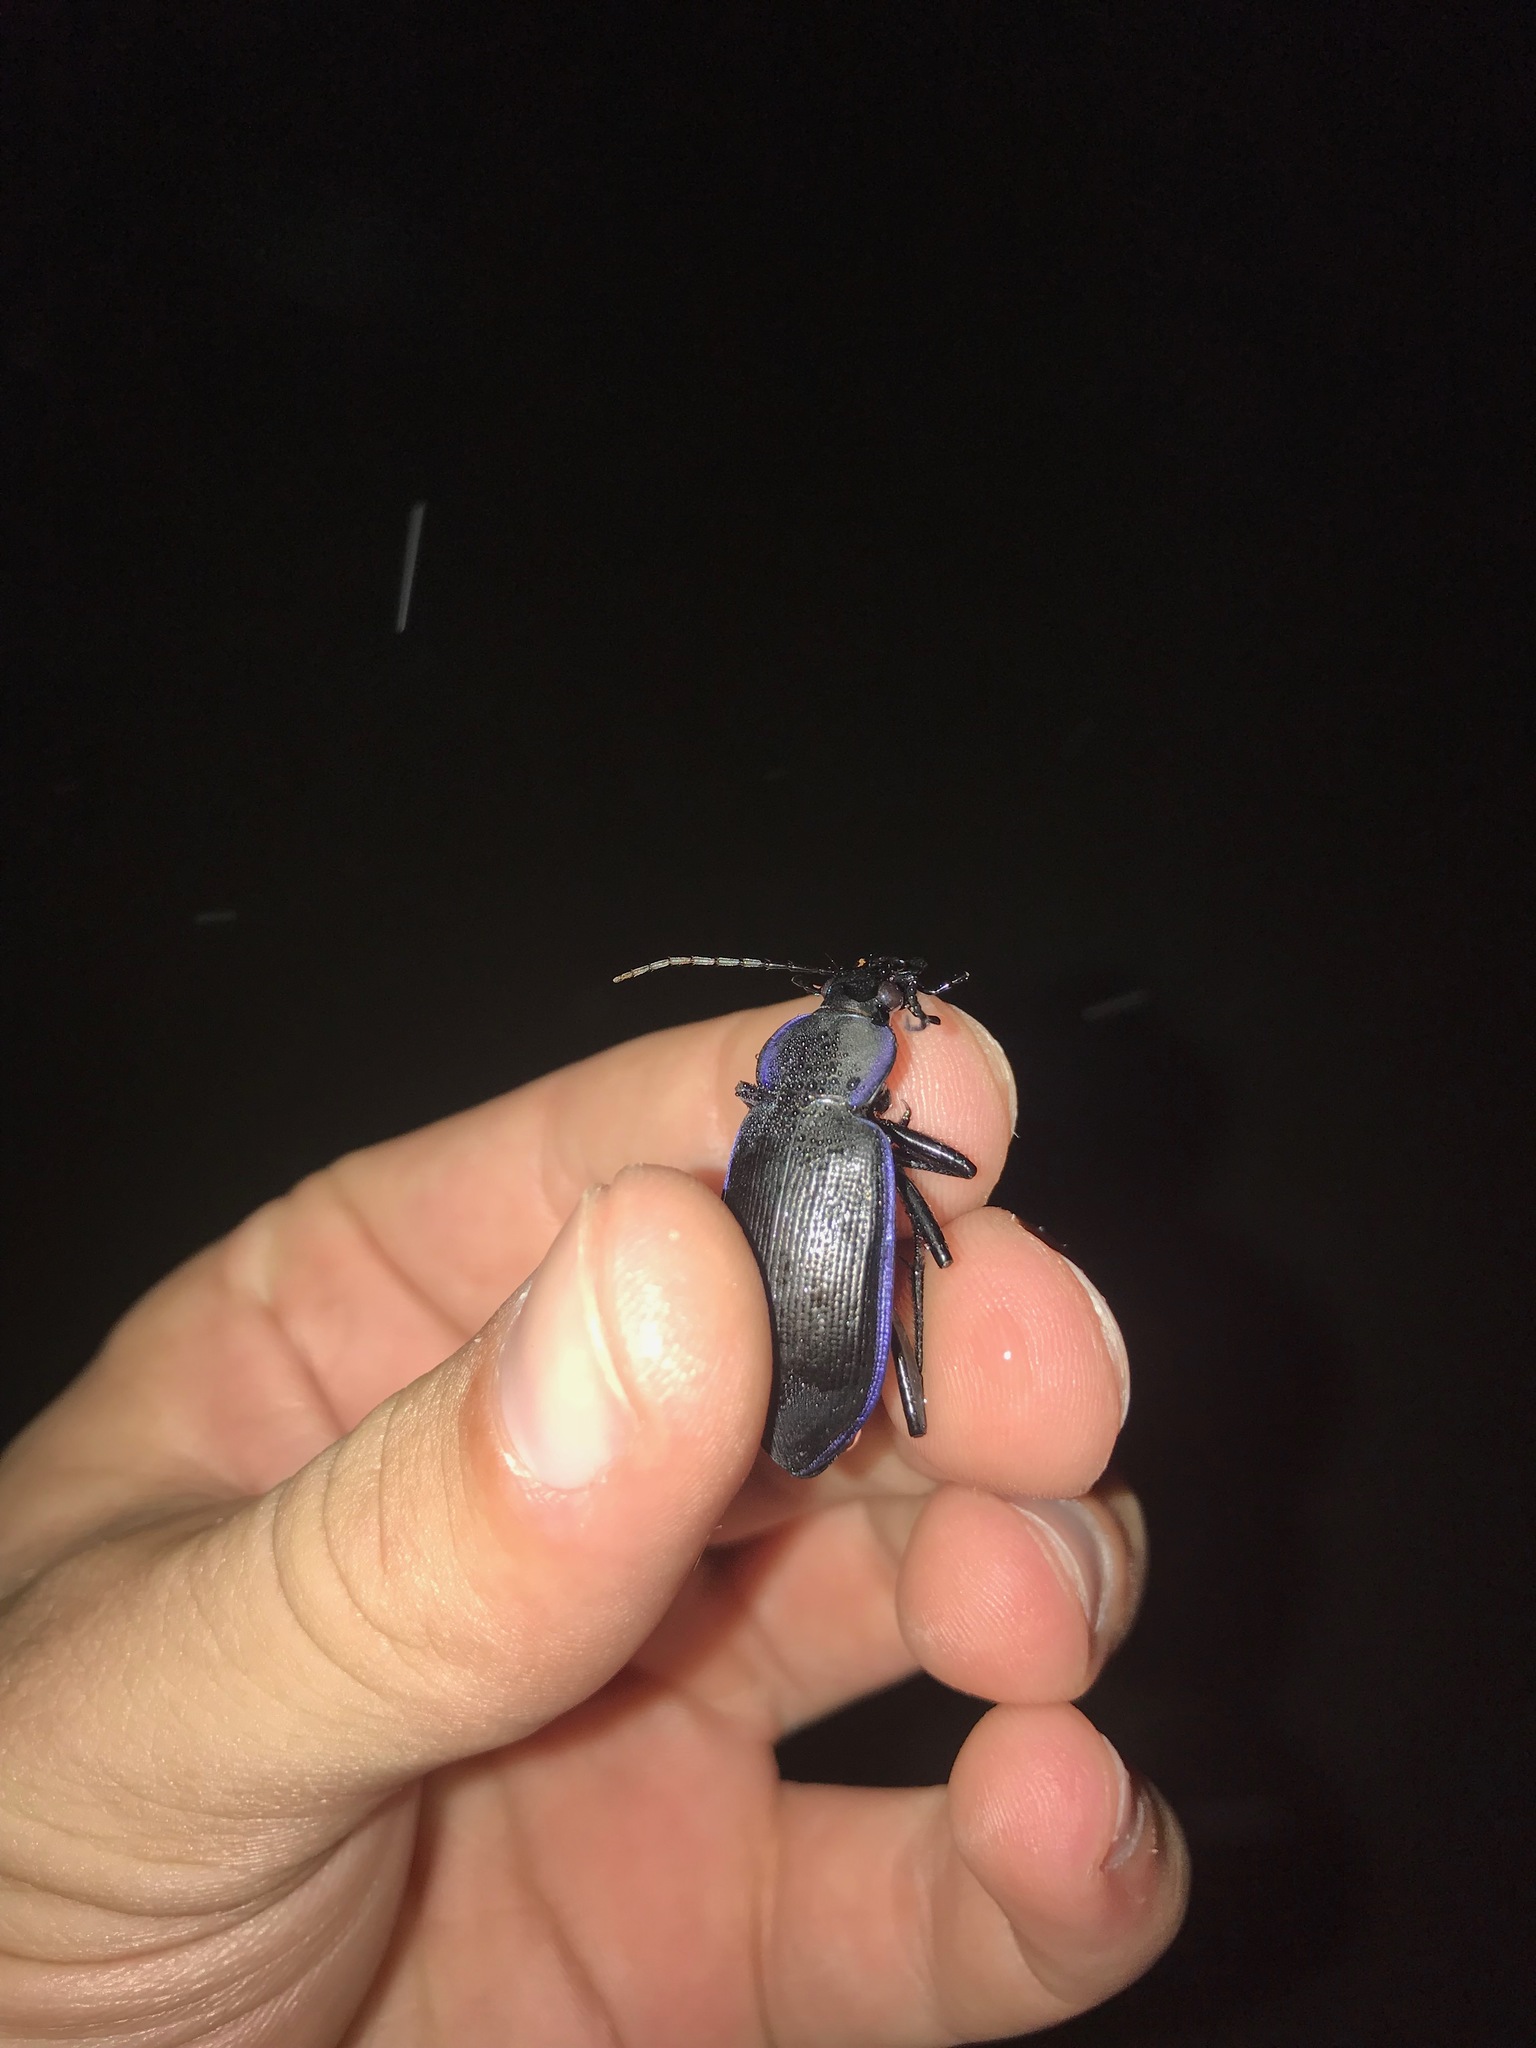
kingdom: Animalia
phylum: Arthropoda
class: Insecta
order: Coleoptera
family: Carabidae
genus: Calosoma
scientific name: Calosoma externum
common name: Narrow searcher beetle
